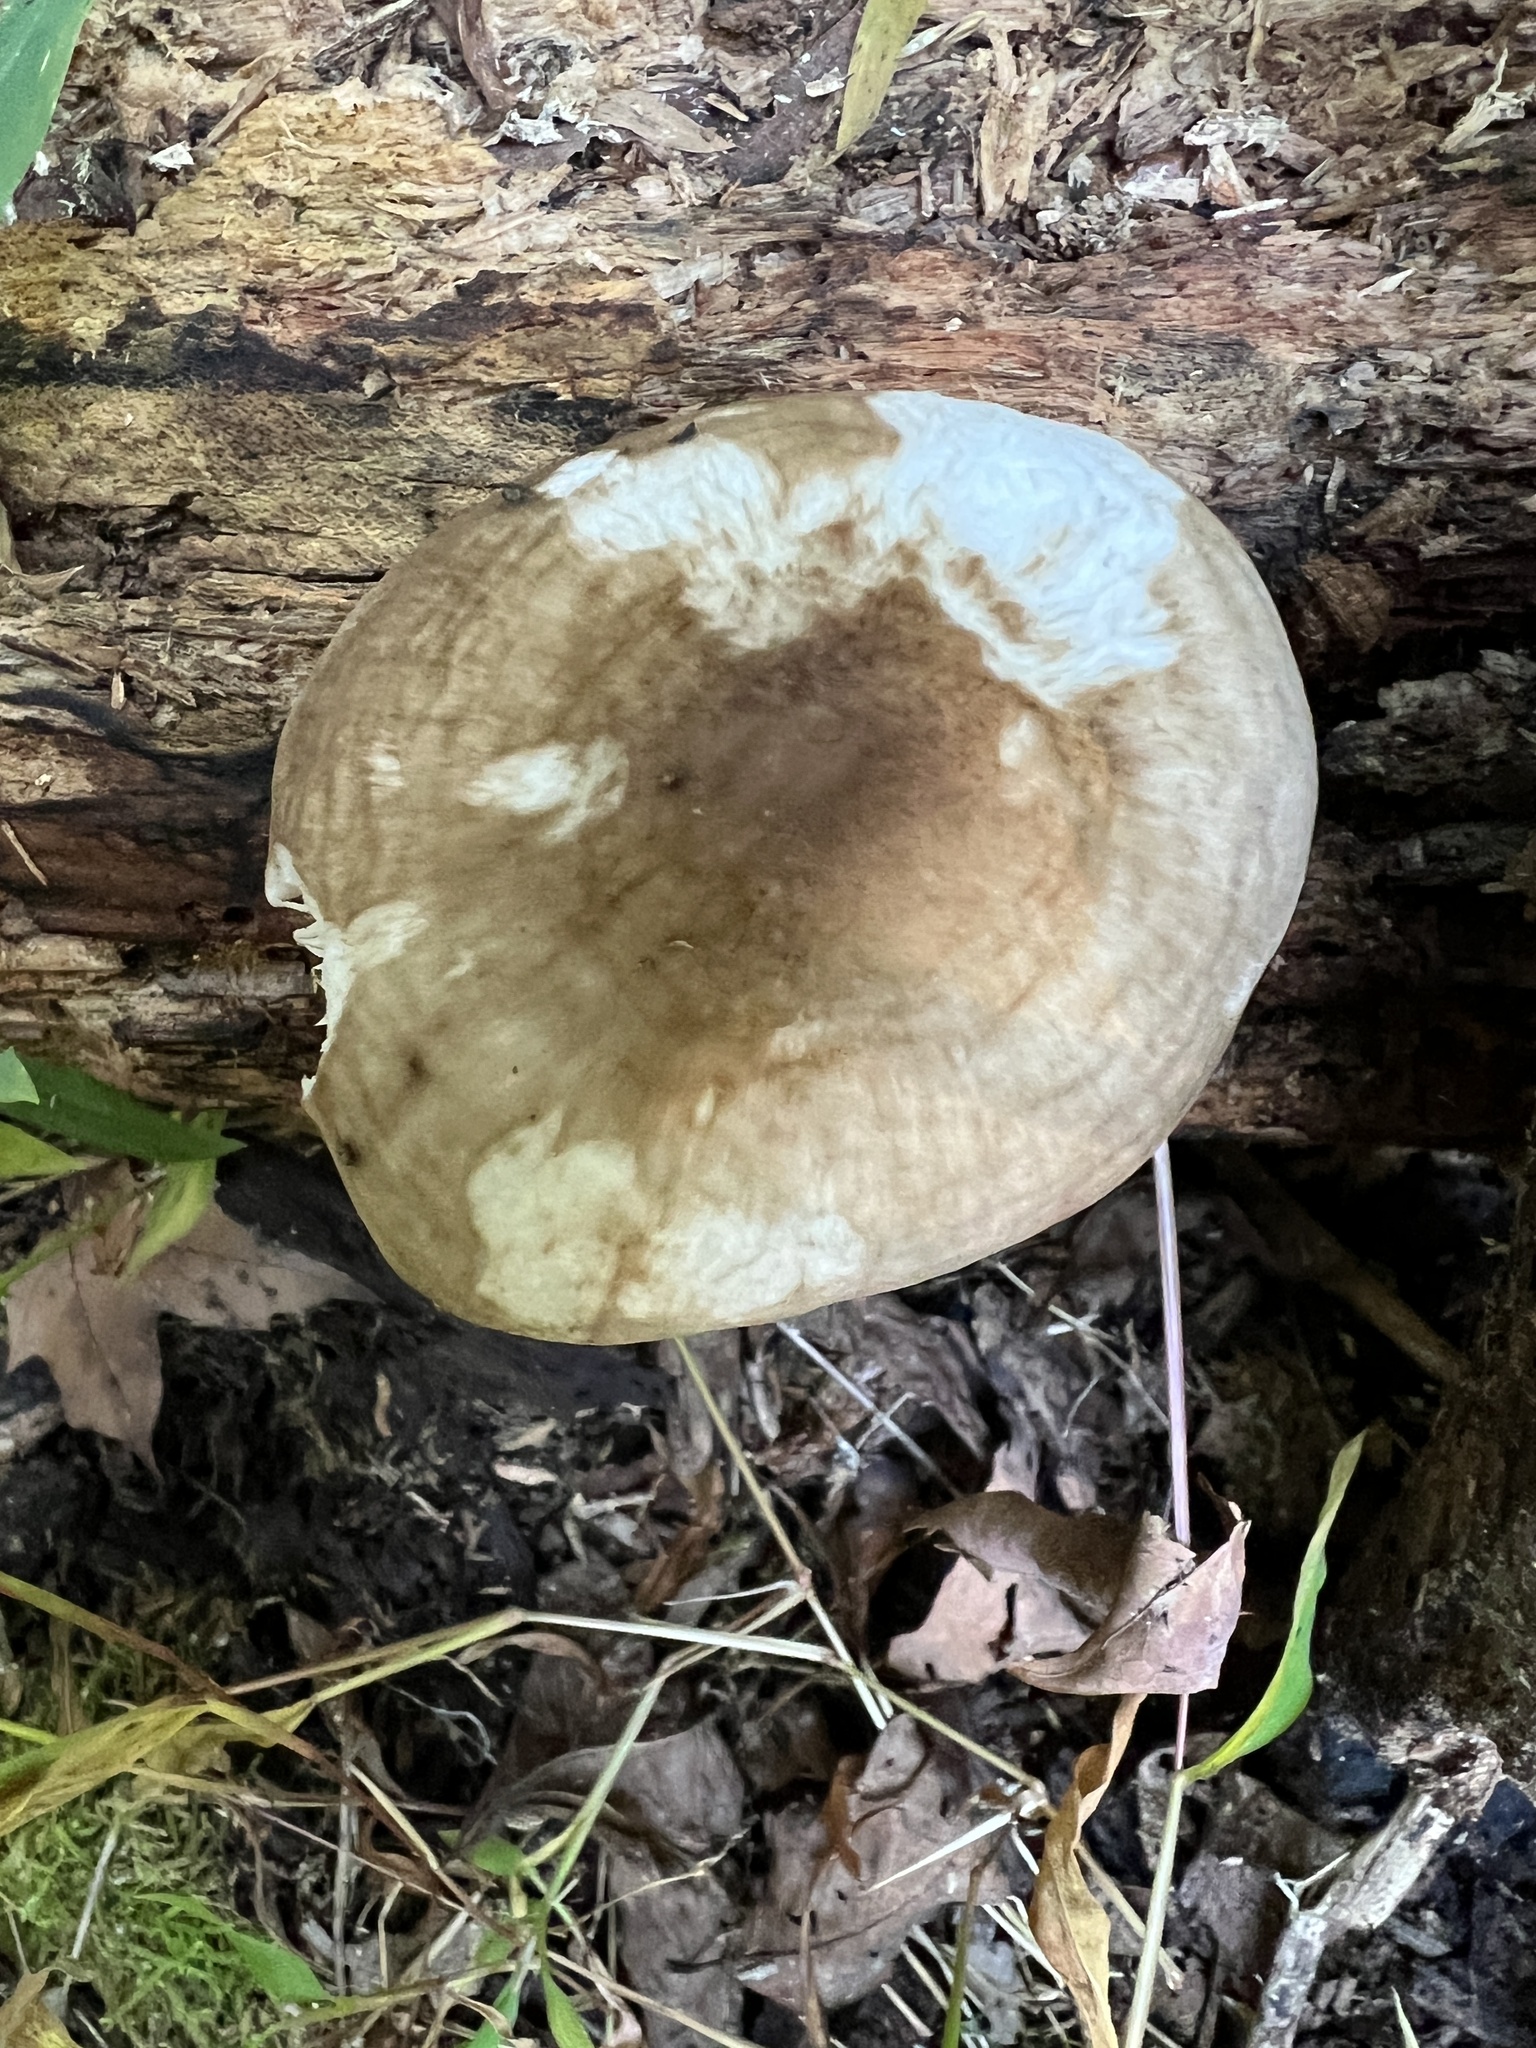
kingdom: Fungi
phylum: Basidiomycota
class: Agaricomycetes
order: Agaricales
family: Pluteaceae
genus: Pluteus
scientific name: Pluteus hongoi
